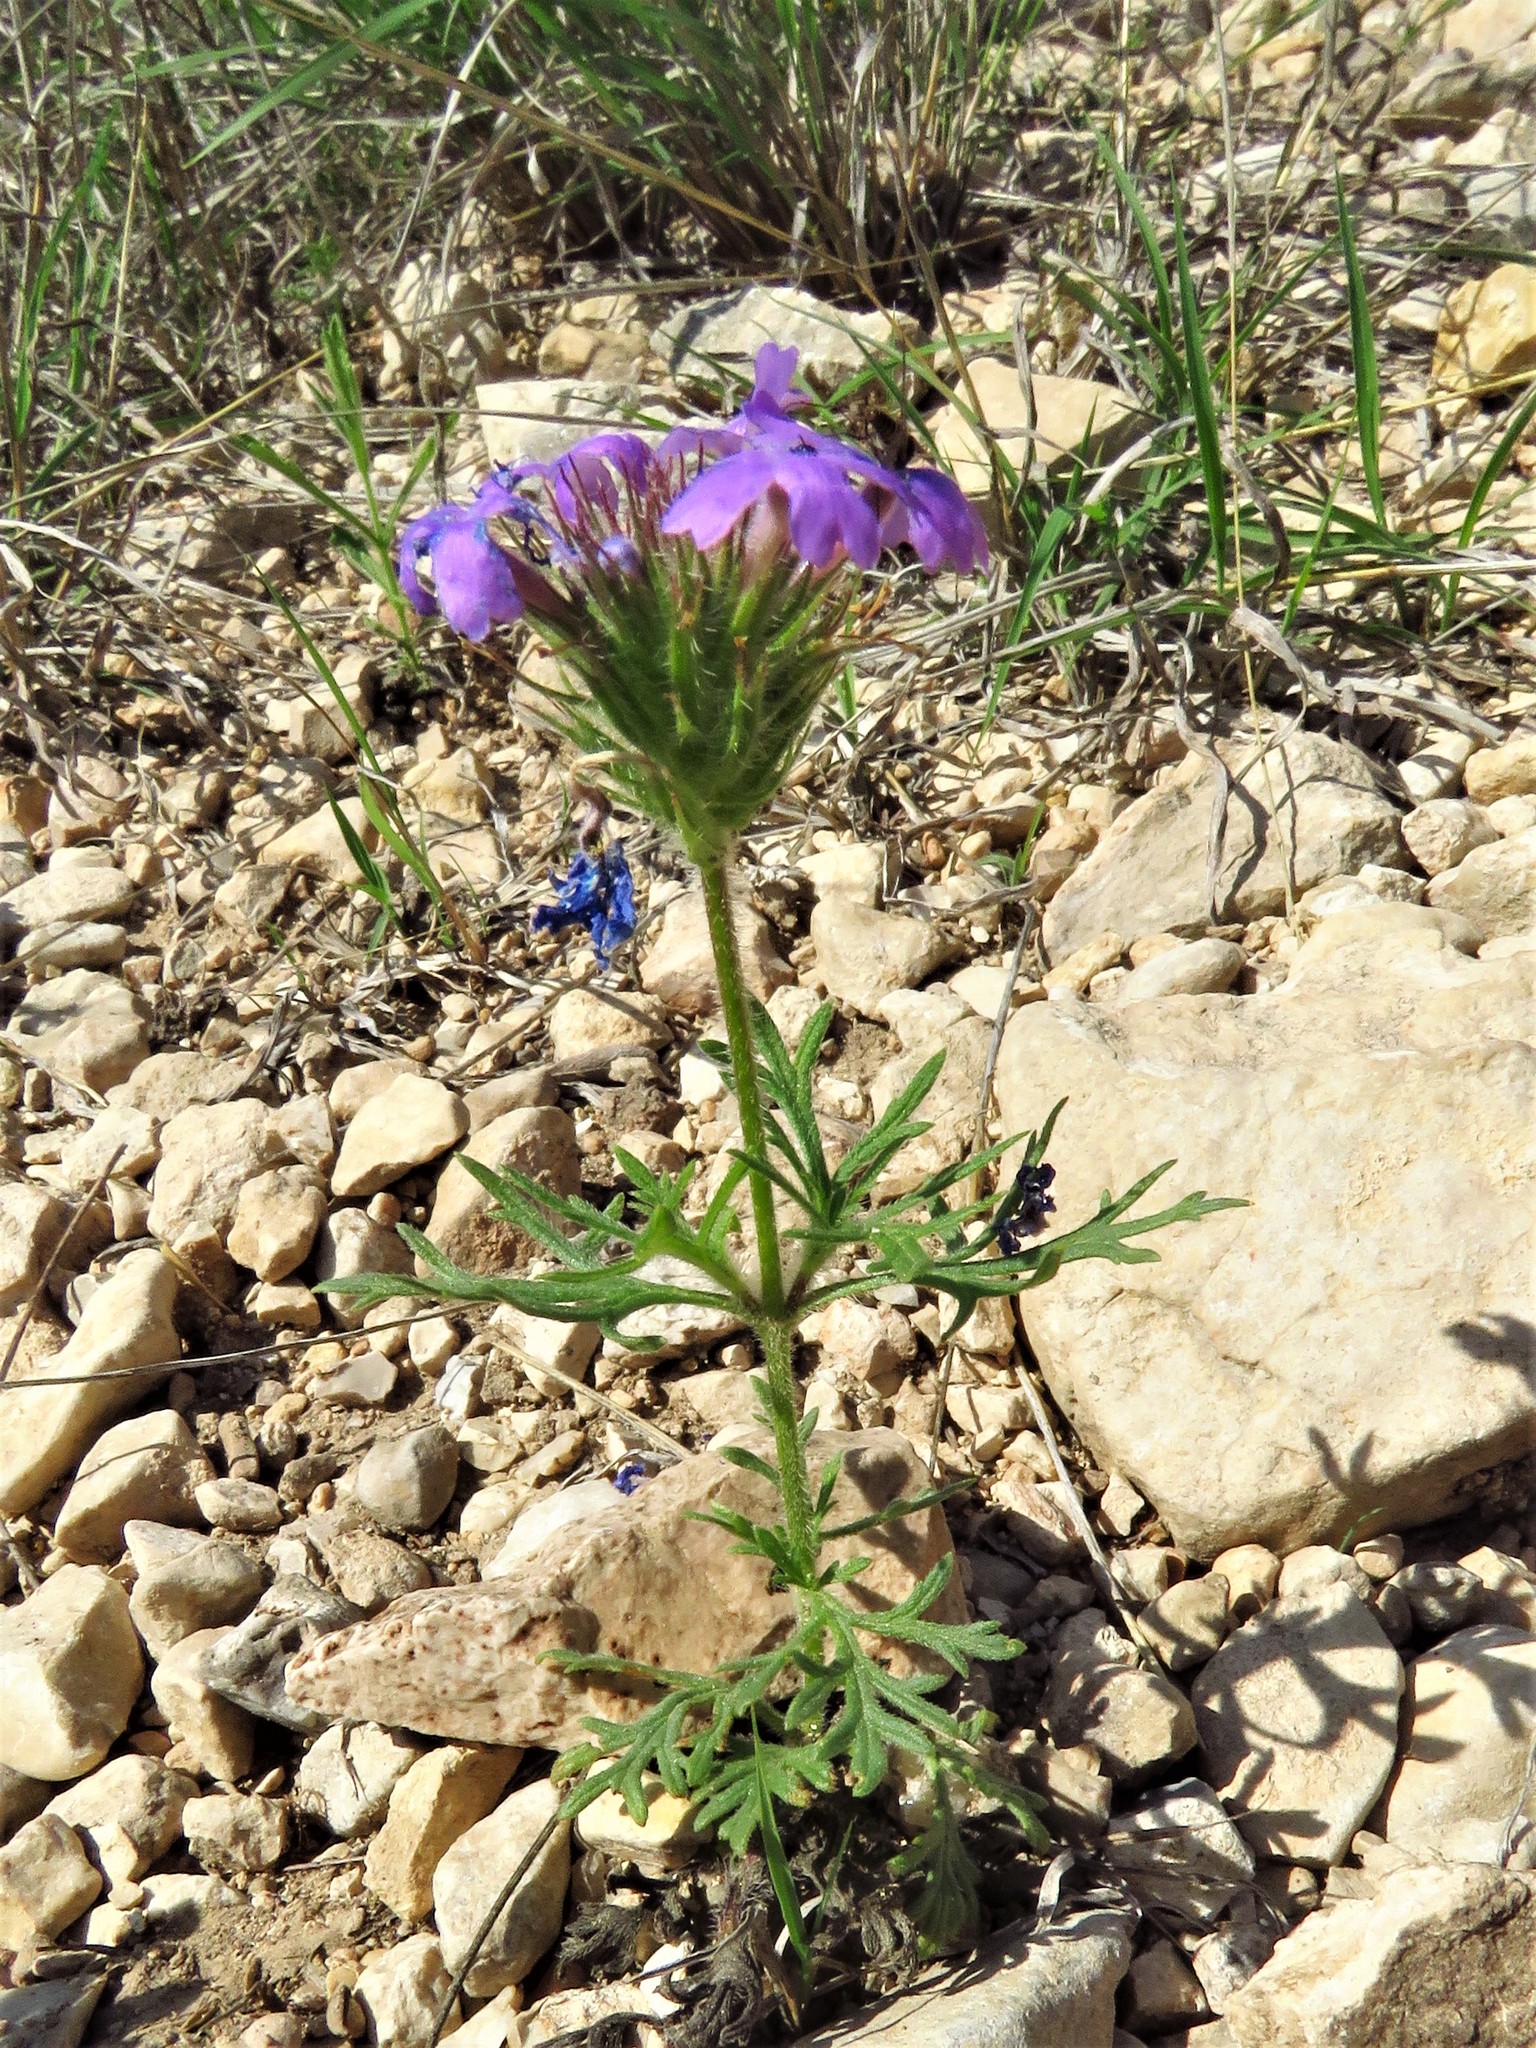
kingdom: Plantae
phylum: Tracheophyta
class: Magnoliopsida
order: Lamiales
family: Verbenaceae
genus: Verbena
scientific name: Verbena bipinnatifida
